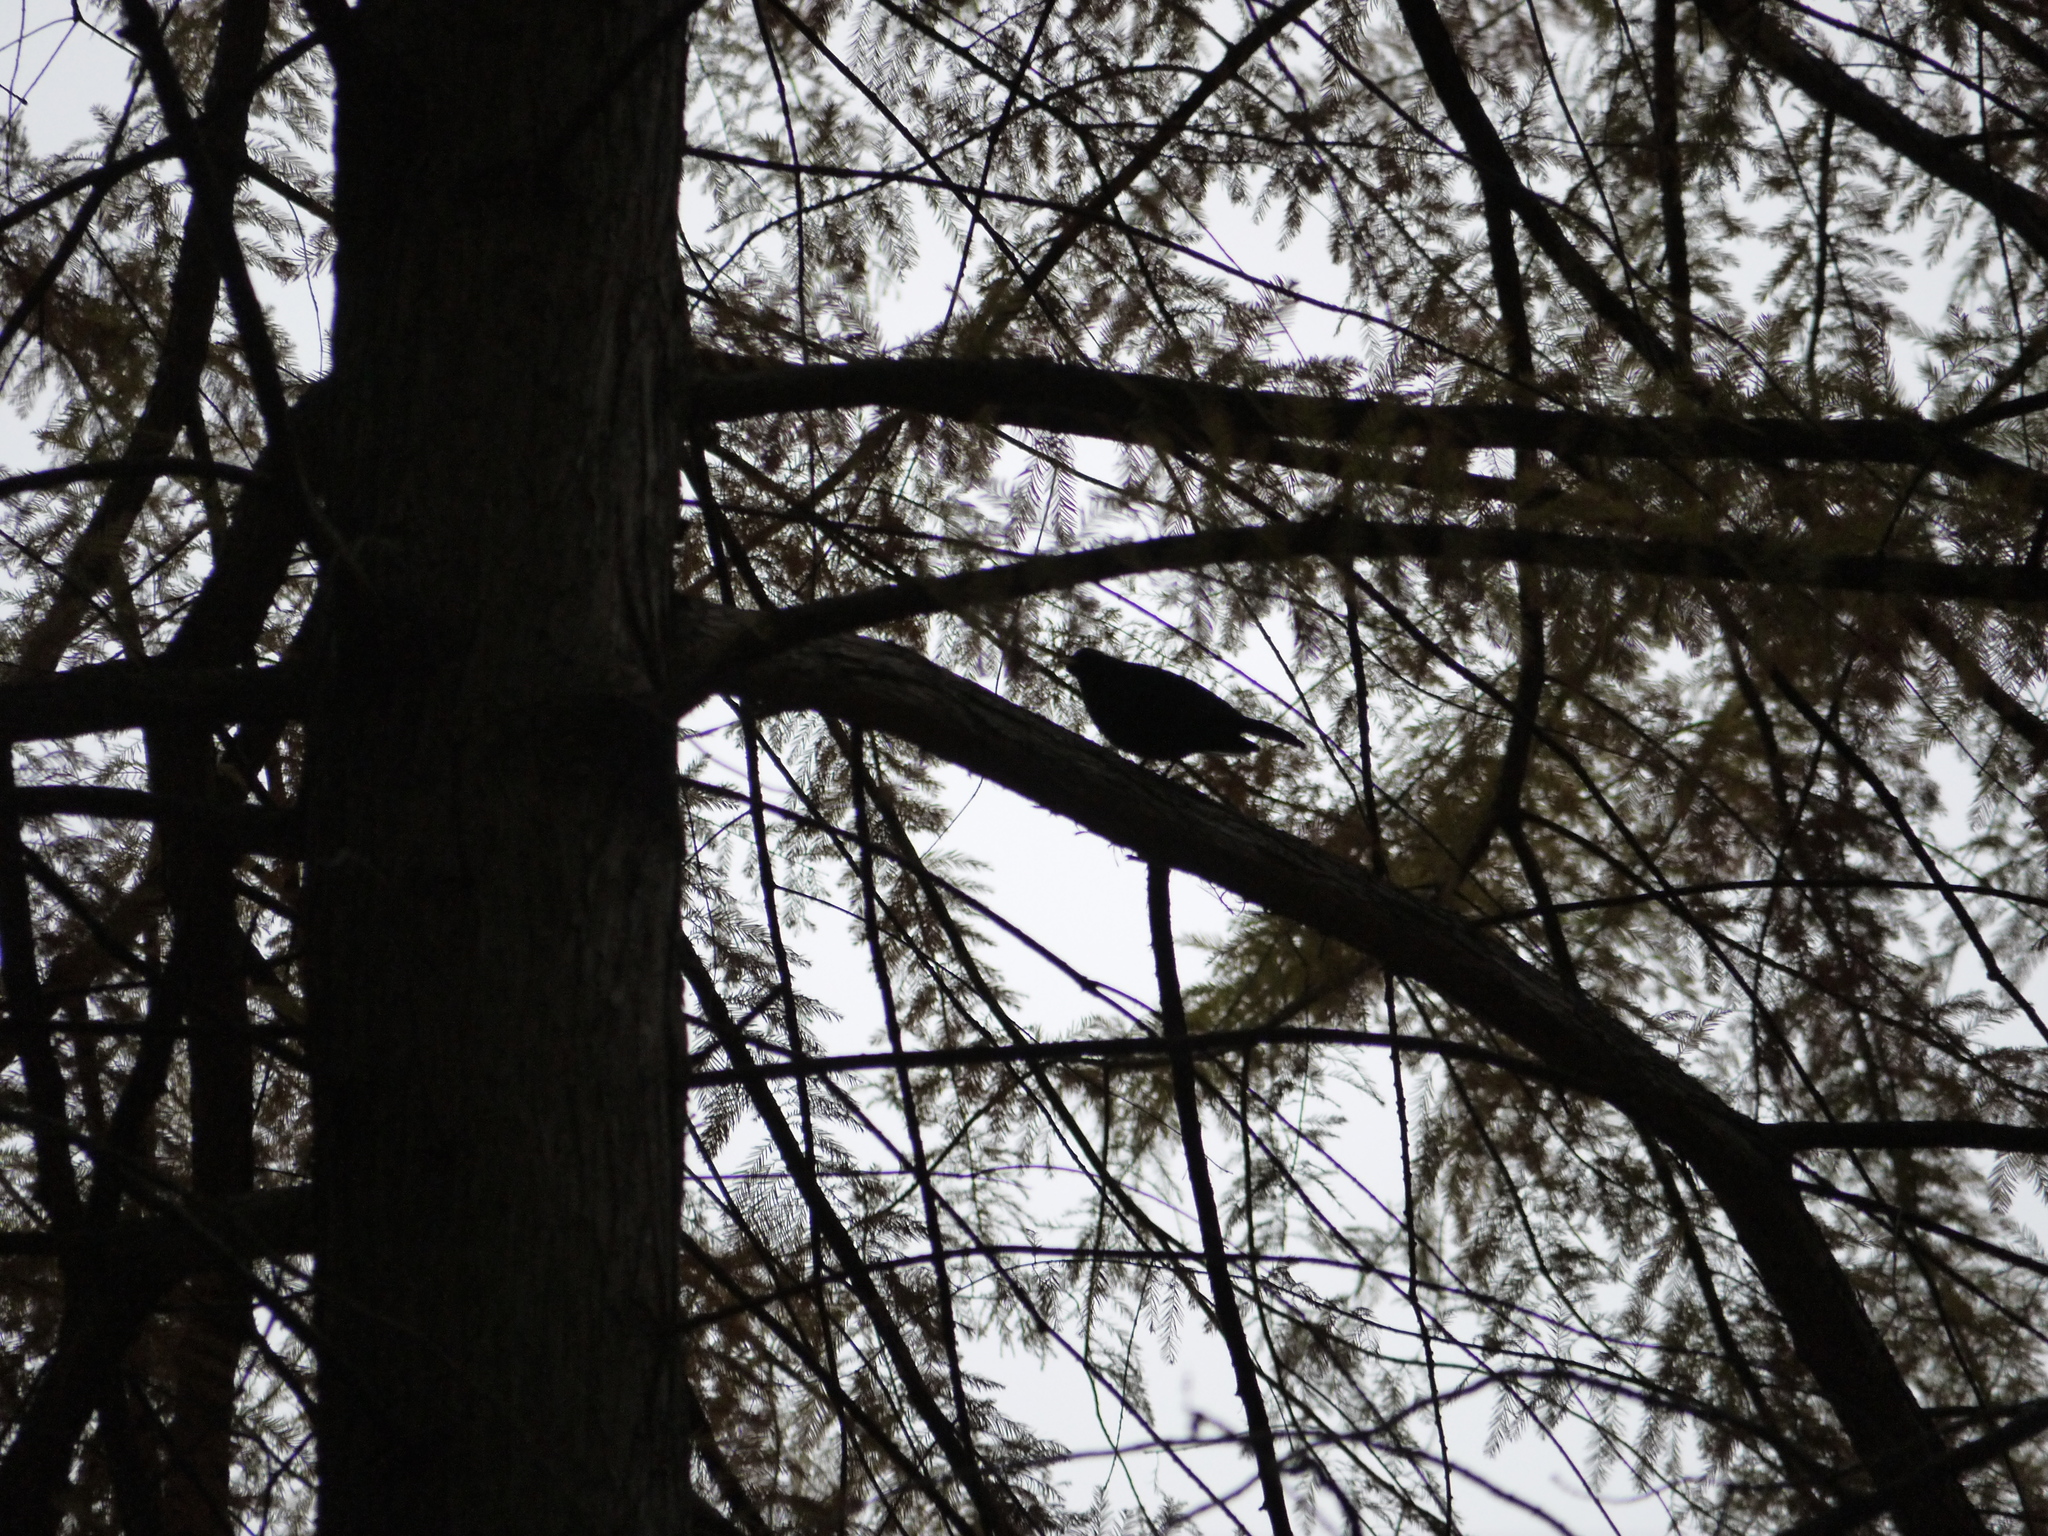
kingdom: Animalia
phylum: Chordata
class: Aves
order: Passeriformes
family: Turdidae
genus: Turdus
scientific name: Turdus merula
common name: Common blackbird
